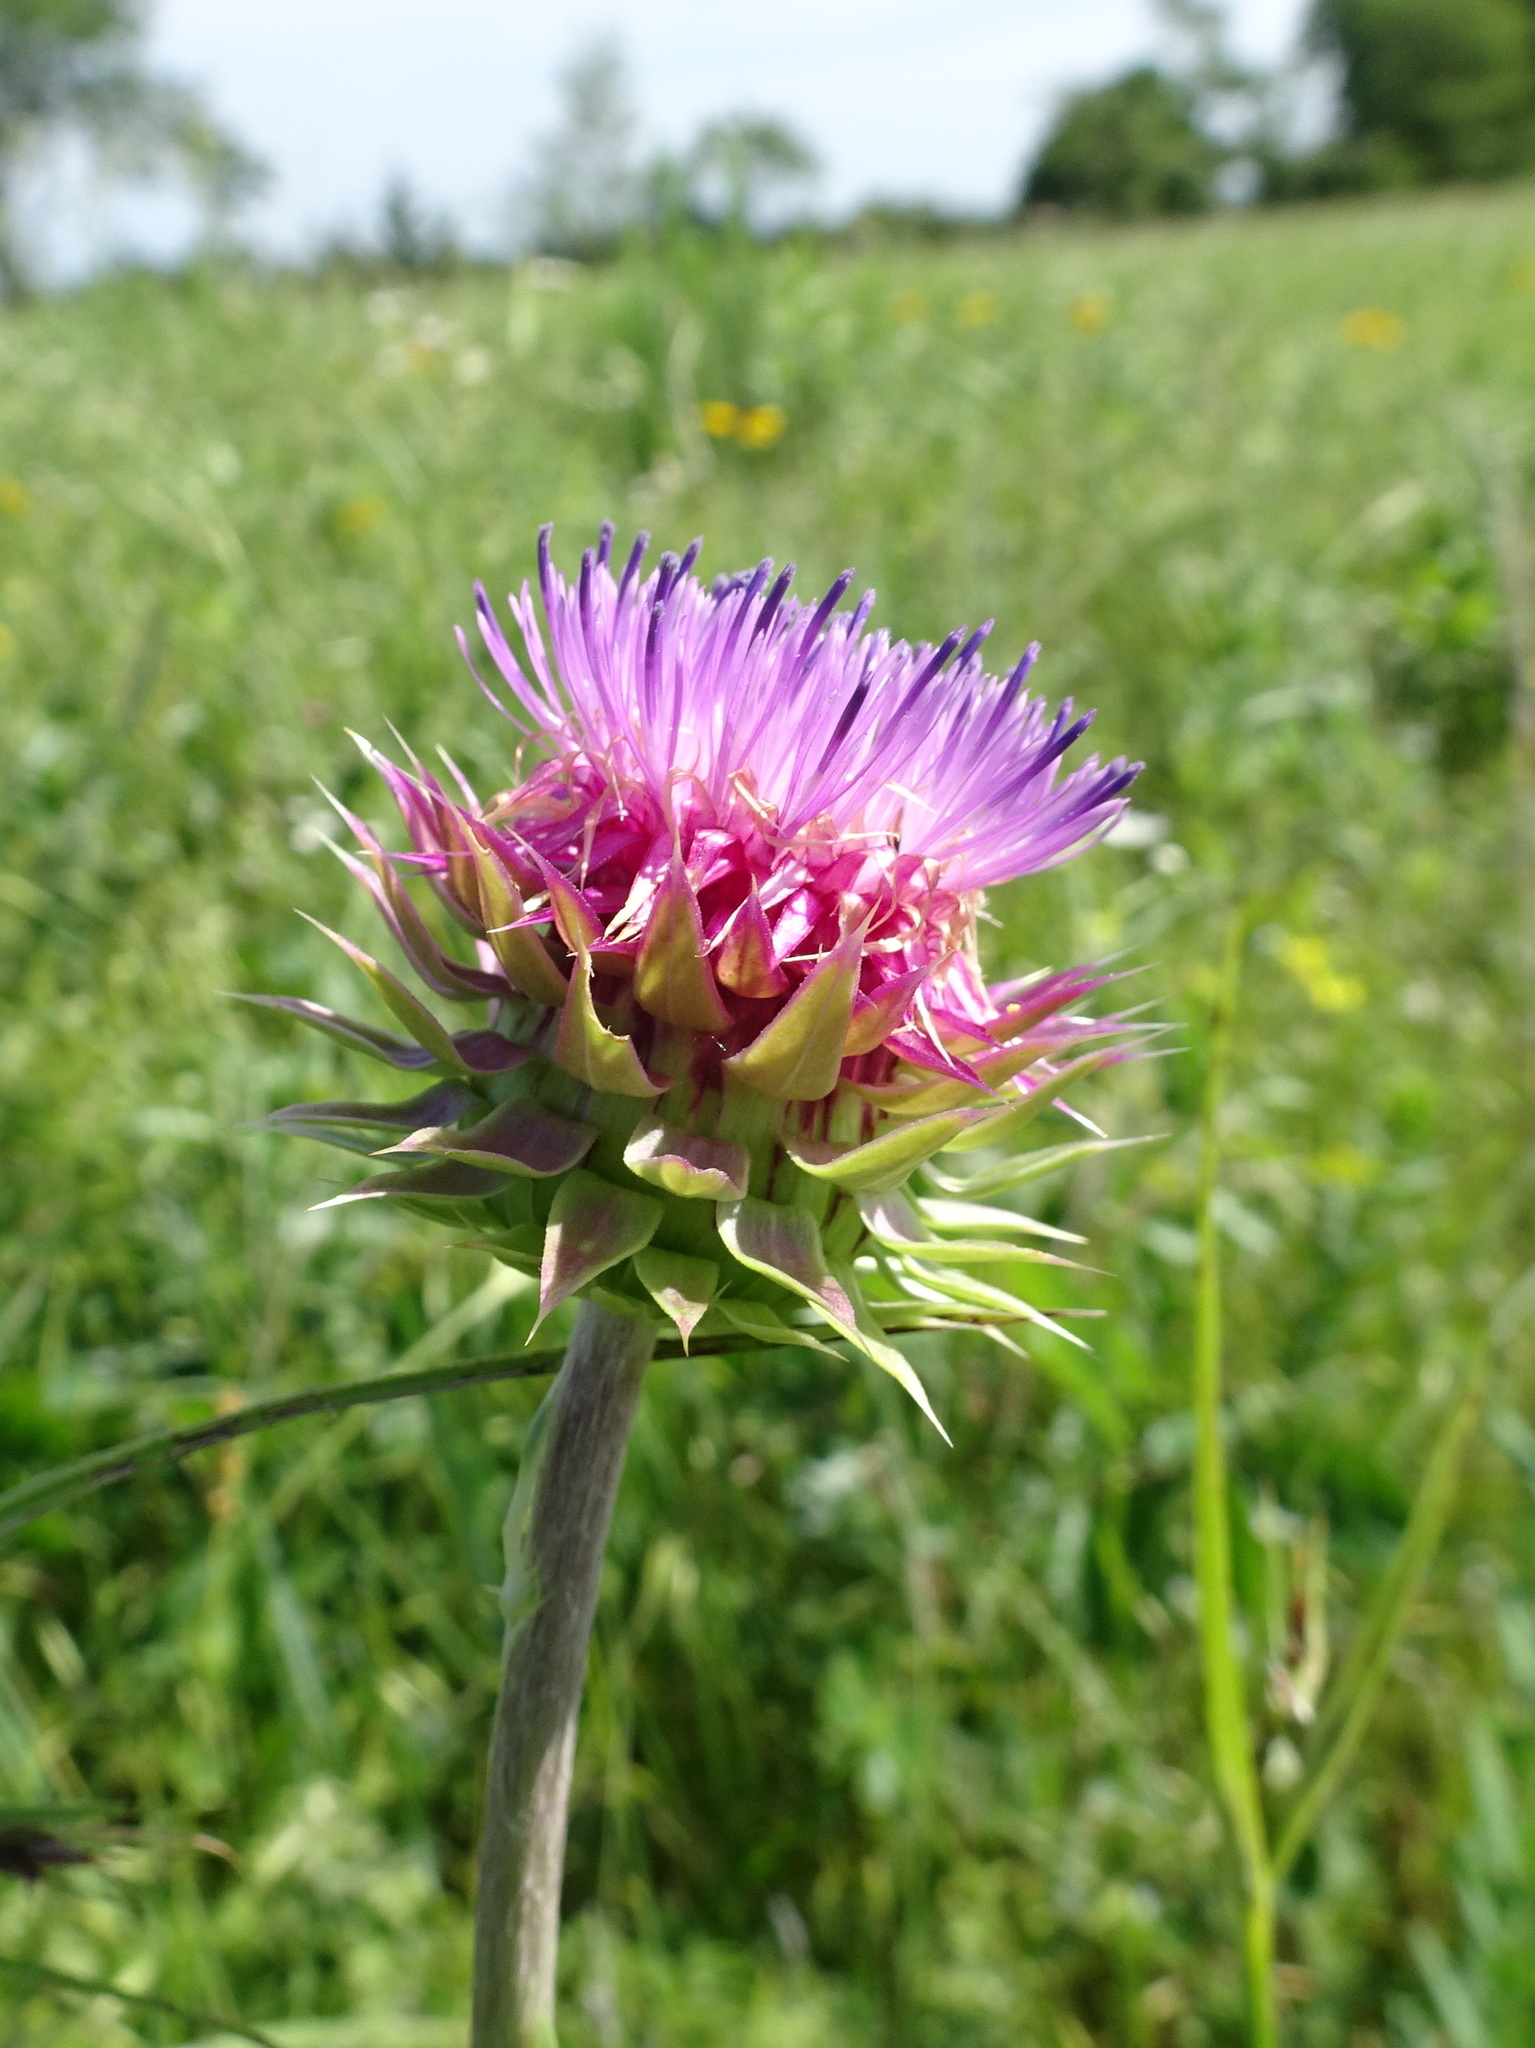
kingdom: Plantae
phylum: Tracheophyta
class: Magnoliopsida
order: Asterales
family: Asteraceae
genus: Carduus
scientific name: Carduus nutans
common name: Musk thistle
